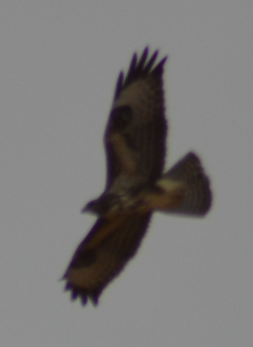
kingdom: Animalia
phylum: Chordata
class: Aves
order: Accipitriformes
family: Accipitridae
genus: Buteo
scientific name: Buteo buteo
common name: Common buzzard
